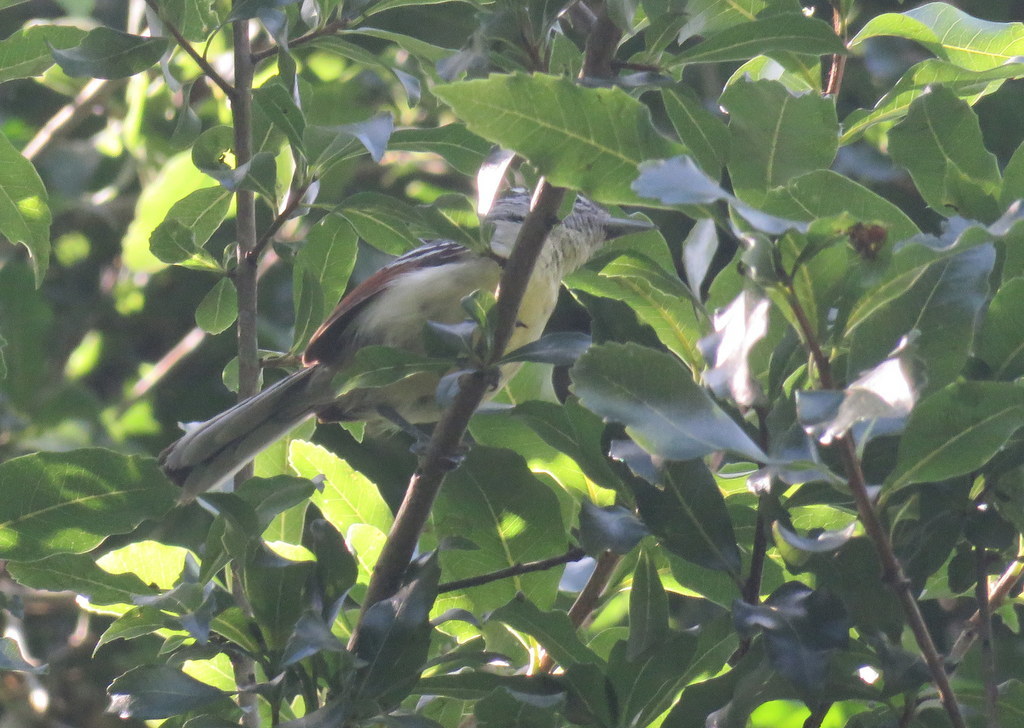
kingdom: Animalia
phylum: Chordata
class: Aves
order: Passeriformes
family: Thamnophilidae
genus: Herpsilochmus
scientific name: Herpsilochmus rufimarginatus
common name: Rufous-winged antwren
